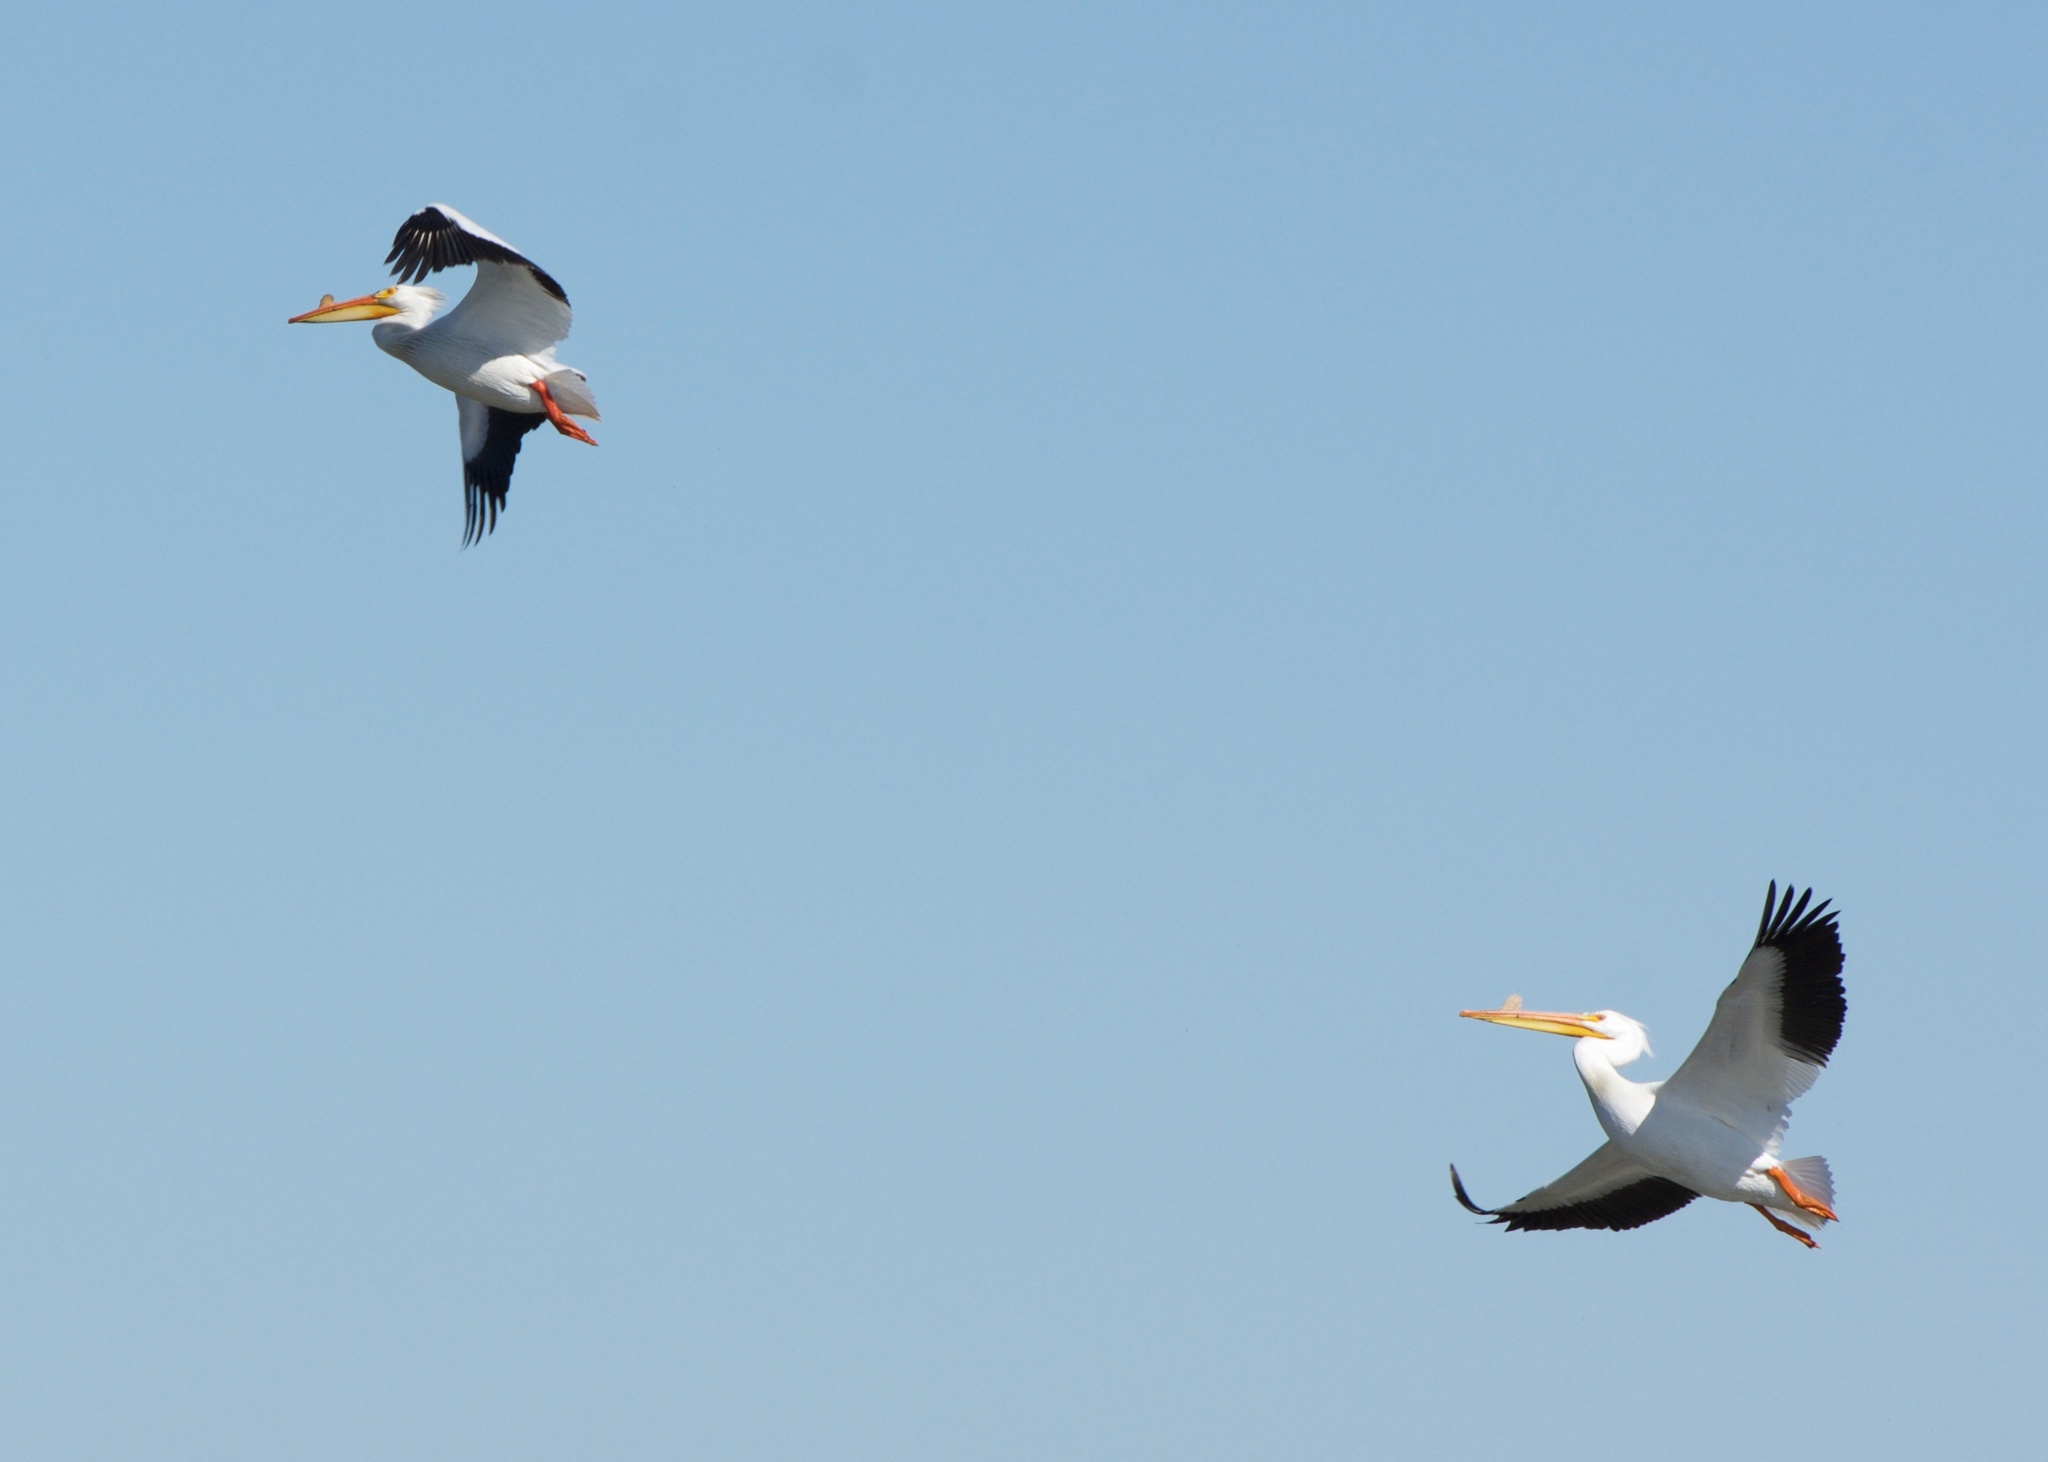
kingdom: Animalia
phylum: Chordata
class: Aves
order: Pelecaniformes
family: Pelecanidae
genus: Pelecanus
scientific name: Pelecanus erythrorhynchos
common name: American white pelican
